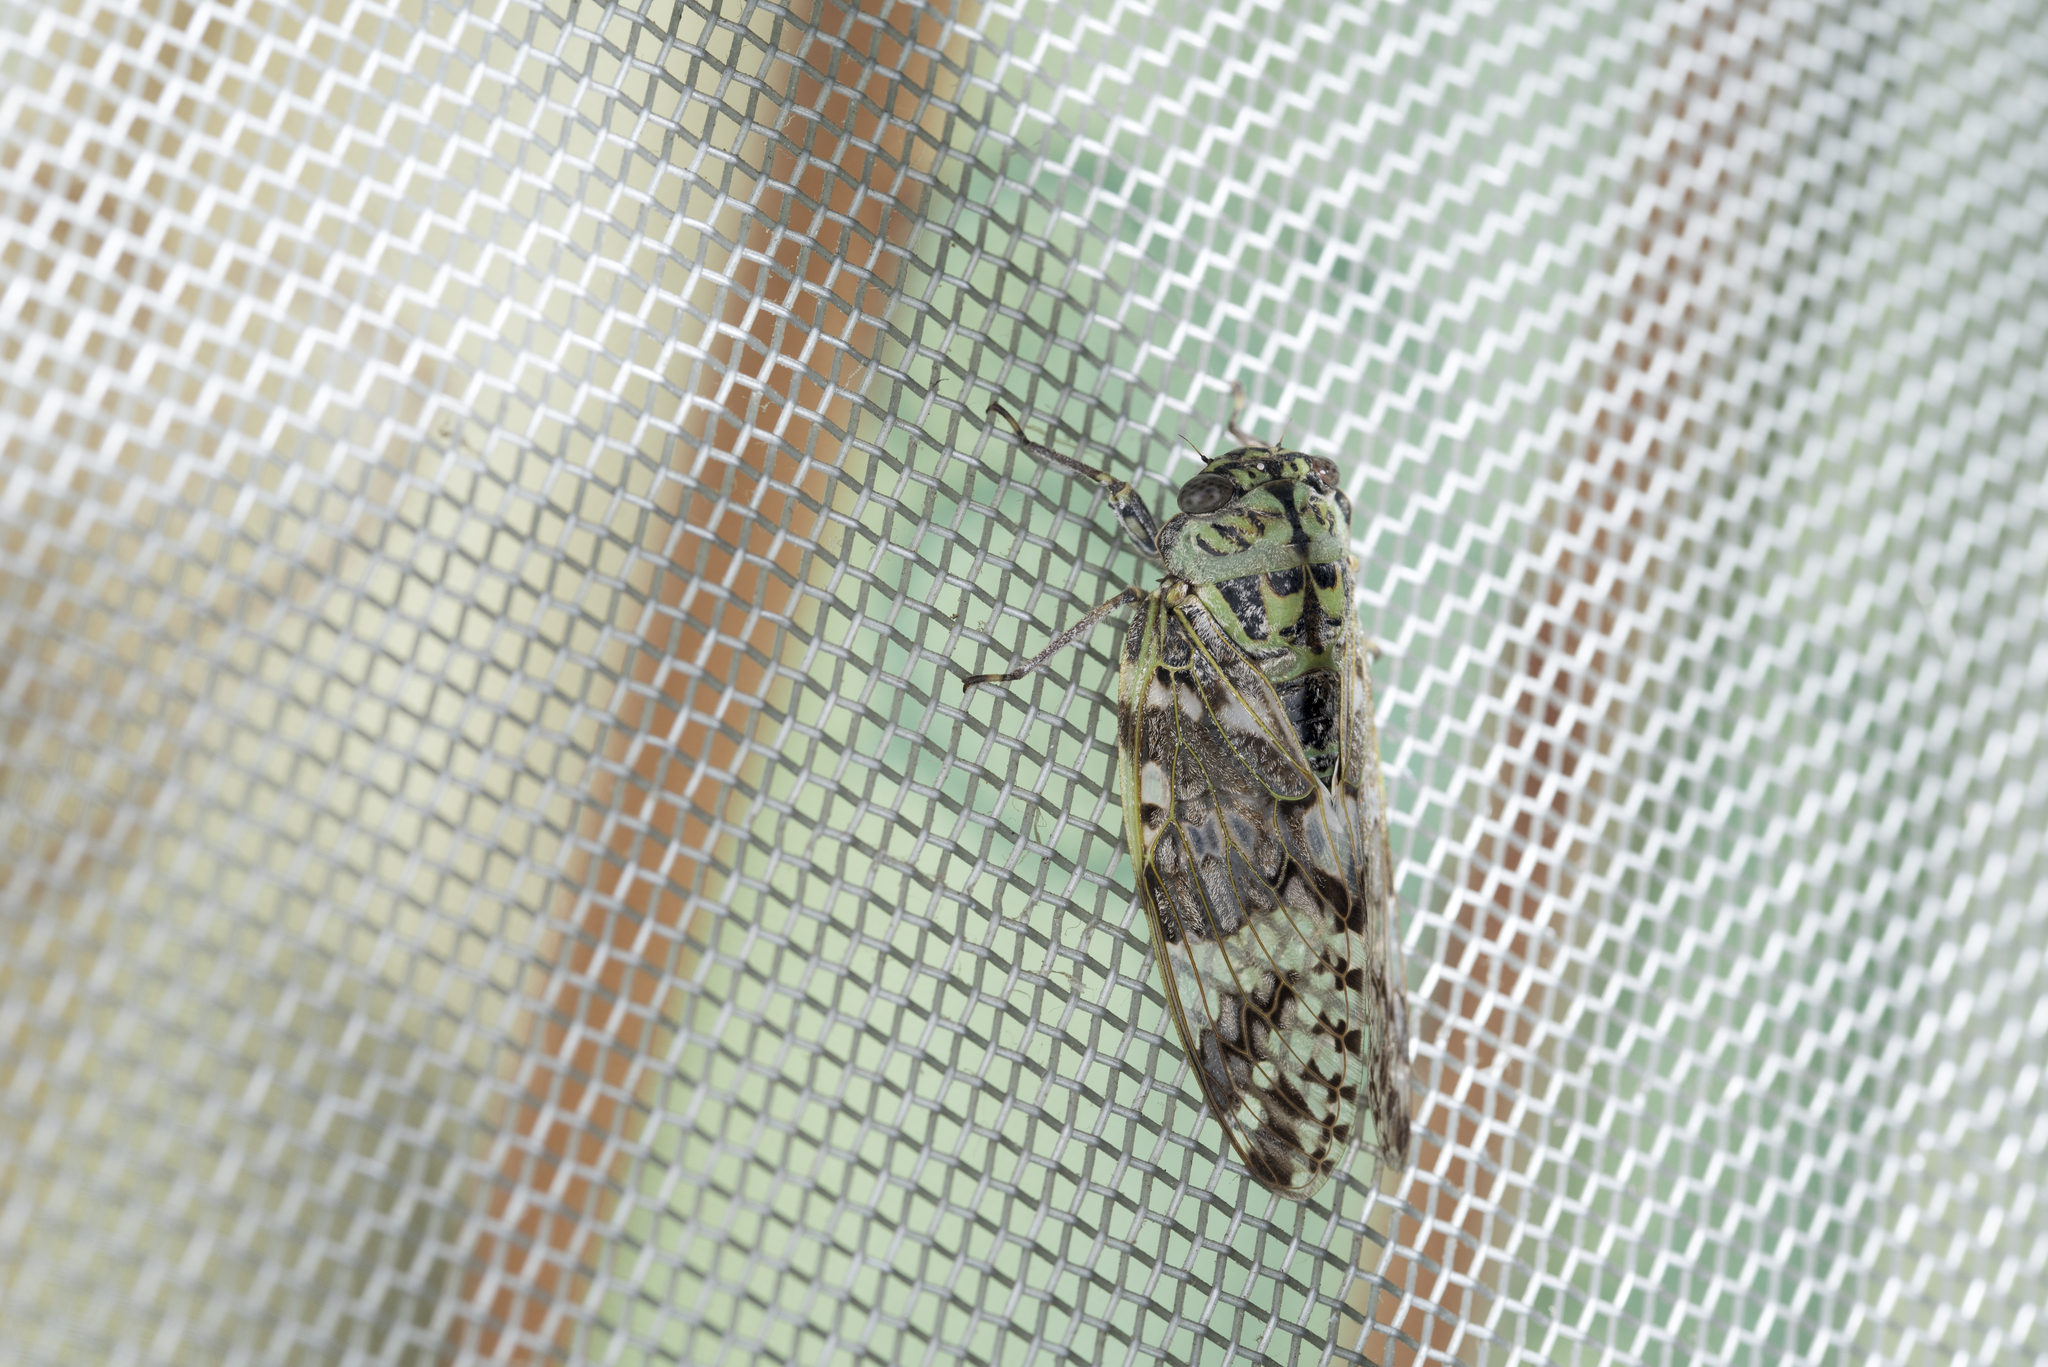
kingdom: Animalia
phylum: Arthropoda
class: Insecta
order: Hemiptera
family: Cicadidae
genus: Platypleura
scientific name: Platypleura takasagona
